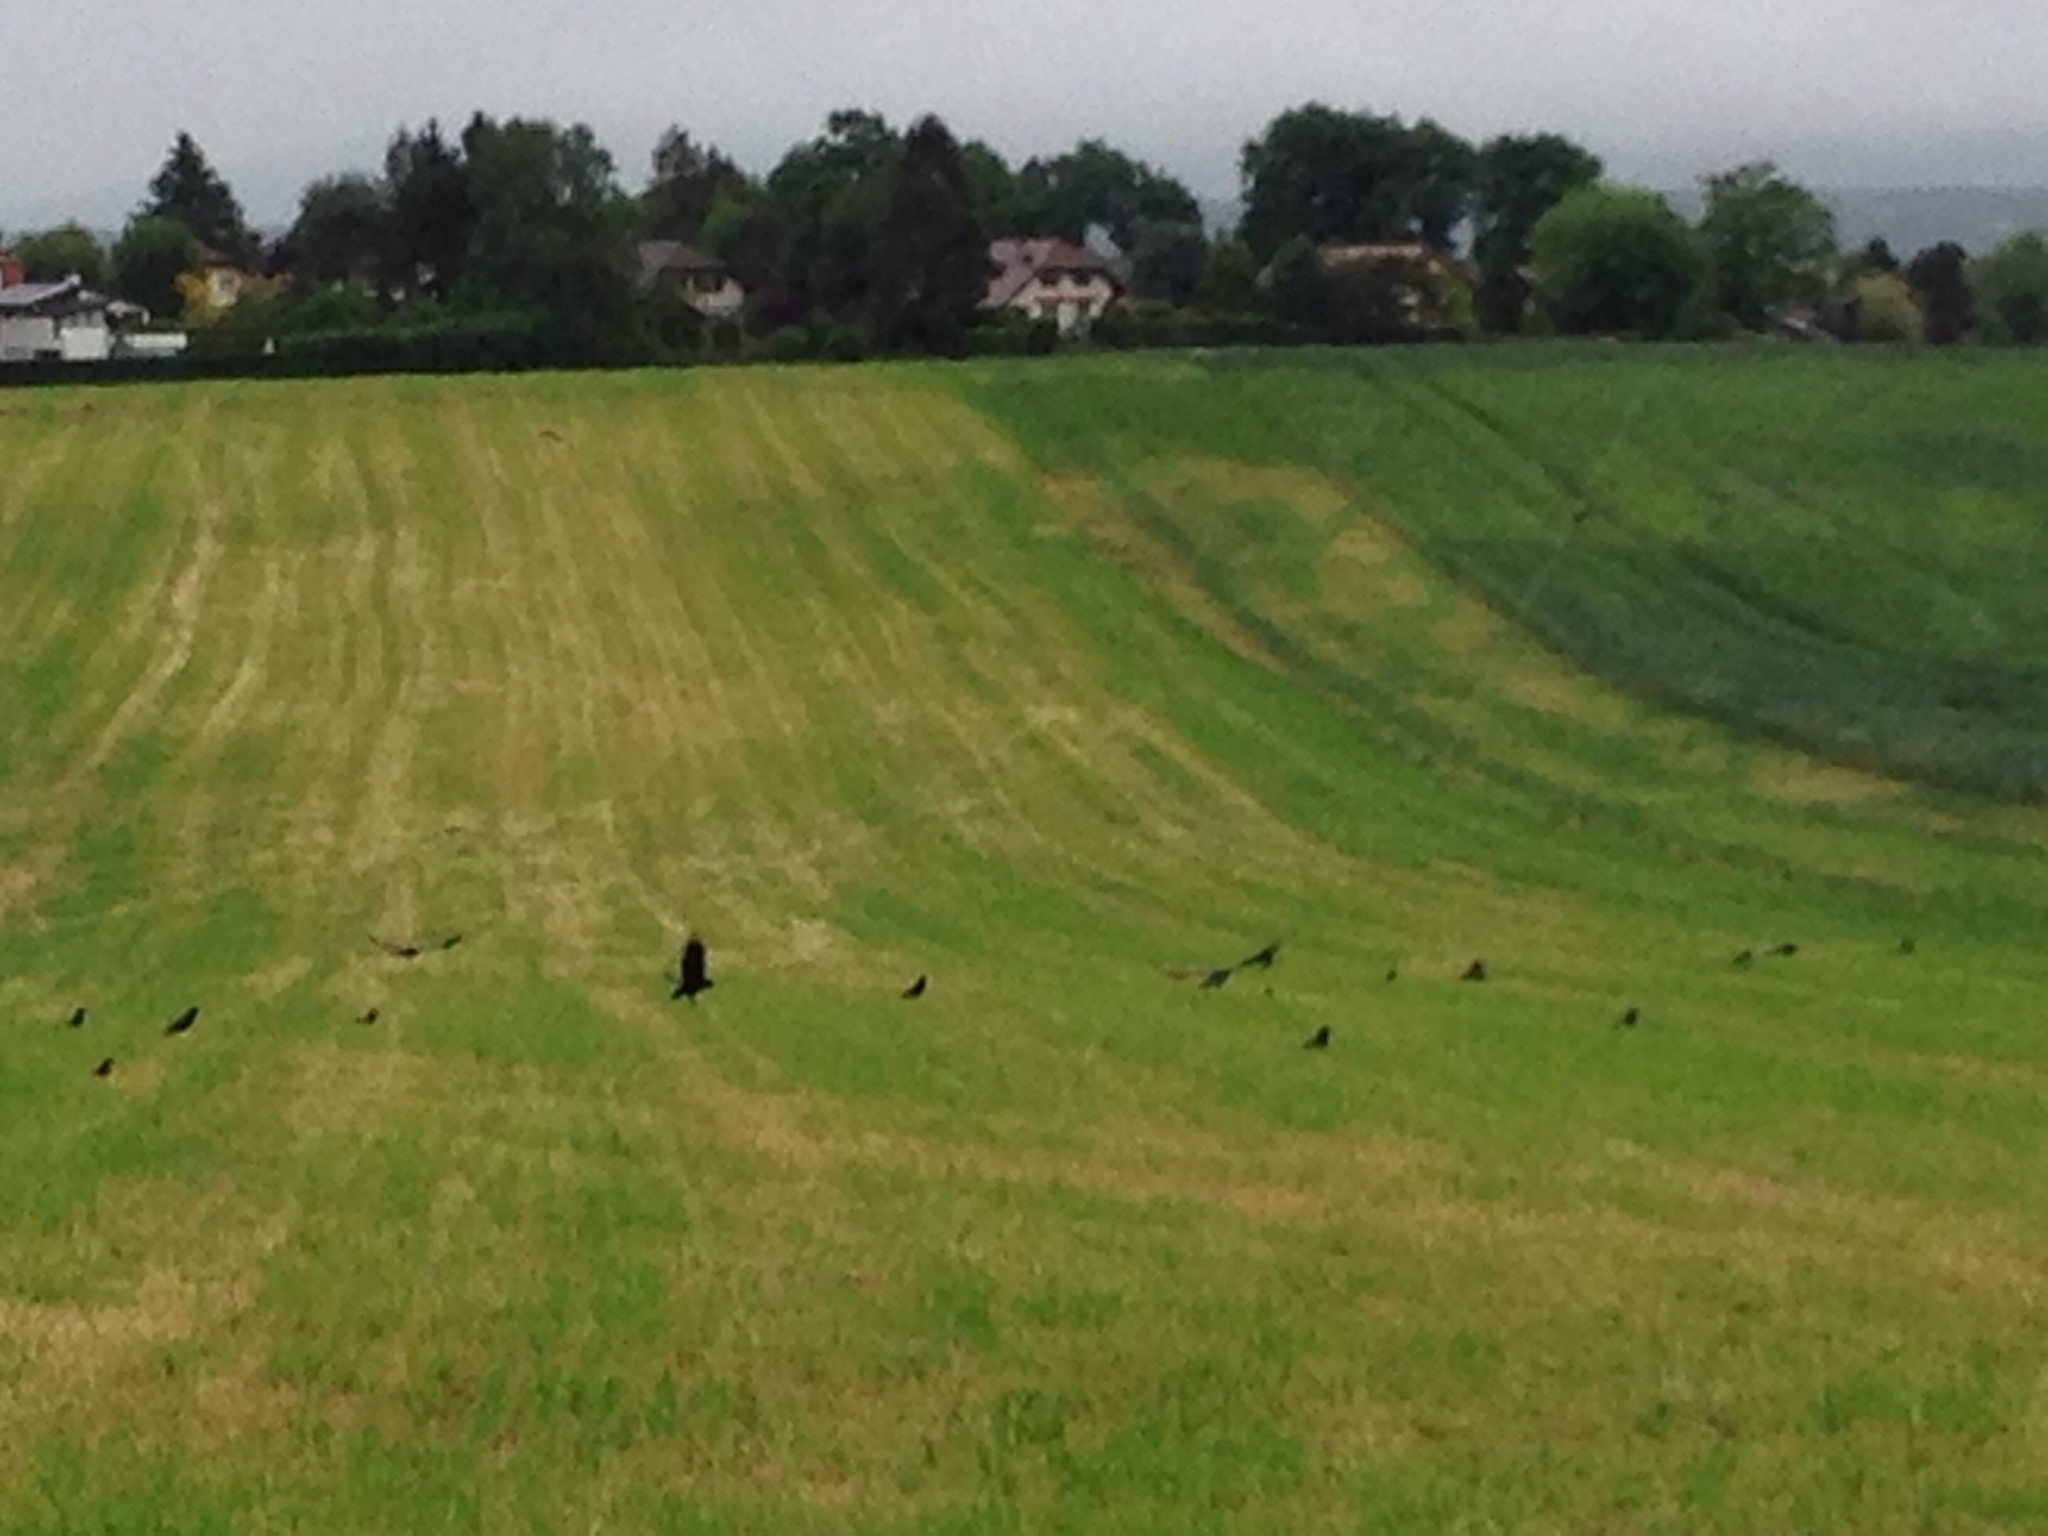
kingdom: Animalia
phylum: Chordata
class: Aves
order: Passeriformes
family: Corvidae
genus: Corvus
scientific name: Corvus frugilegus
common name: Rook
